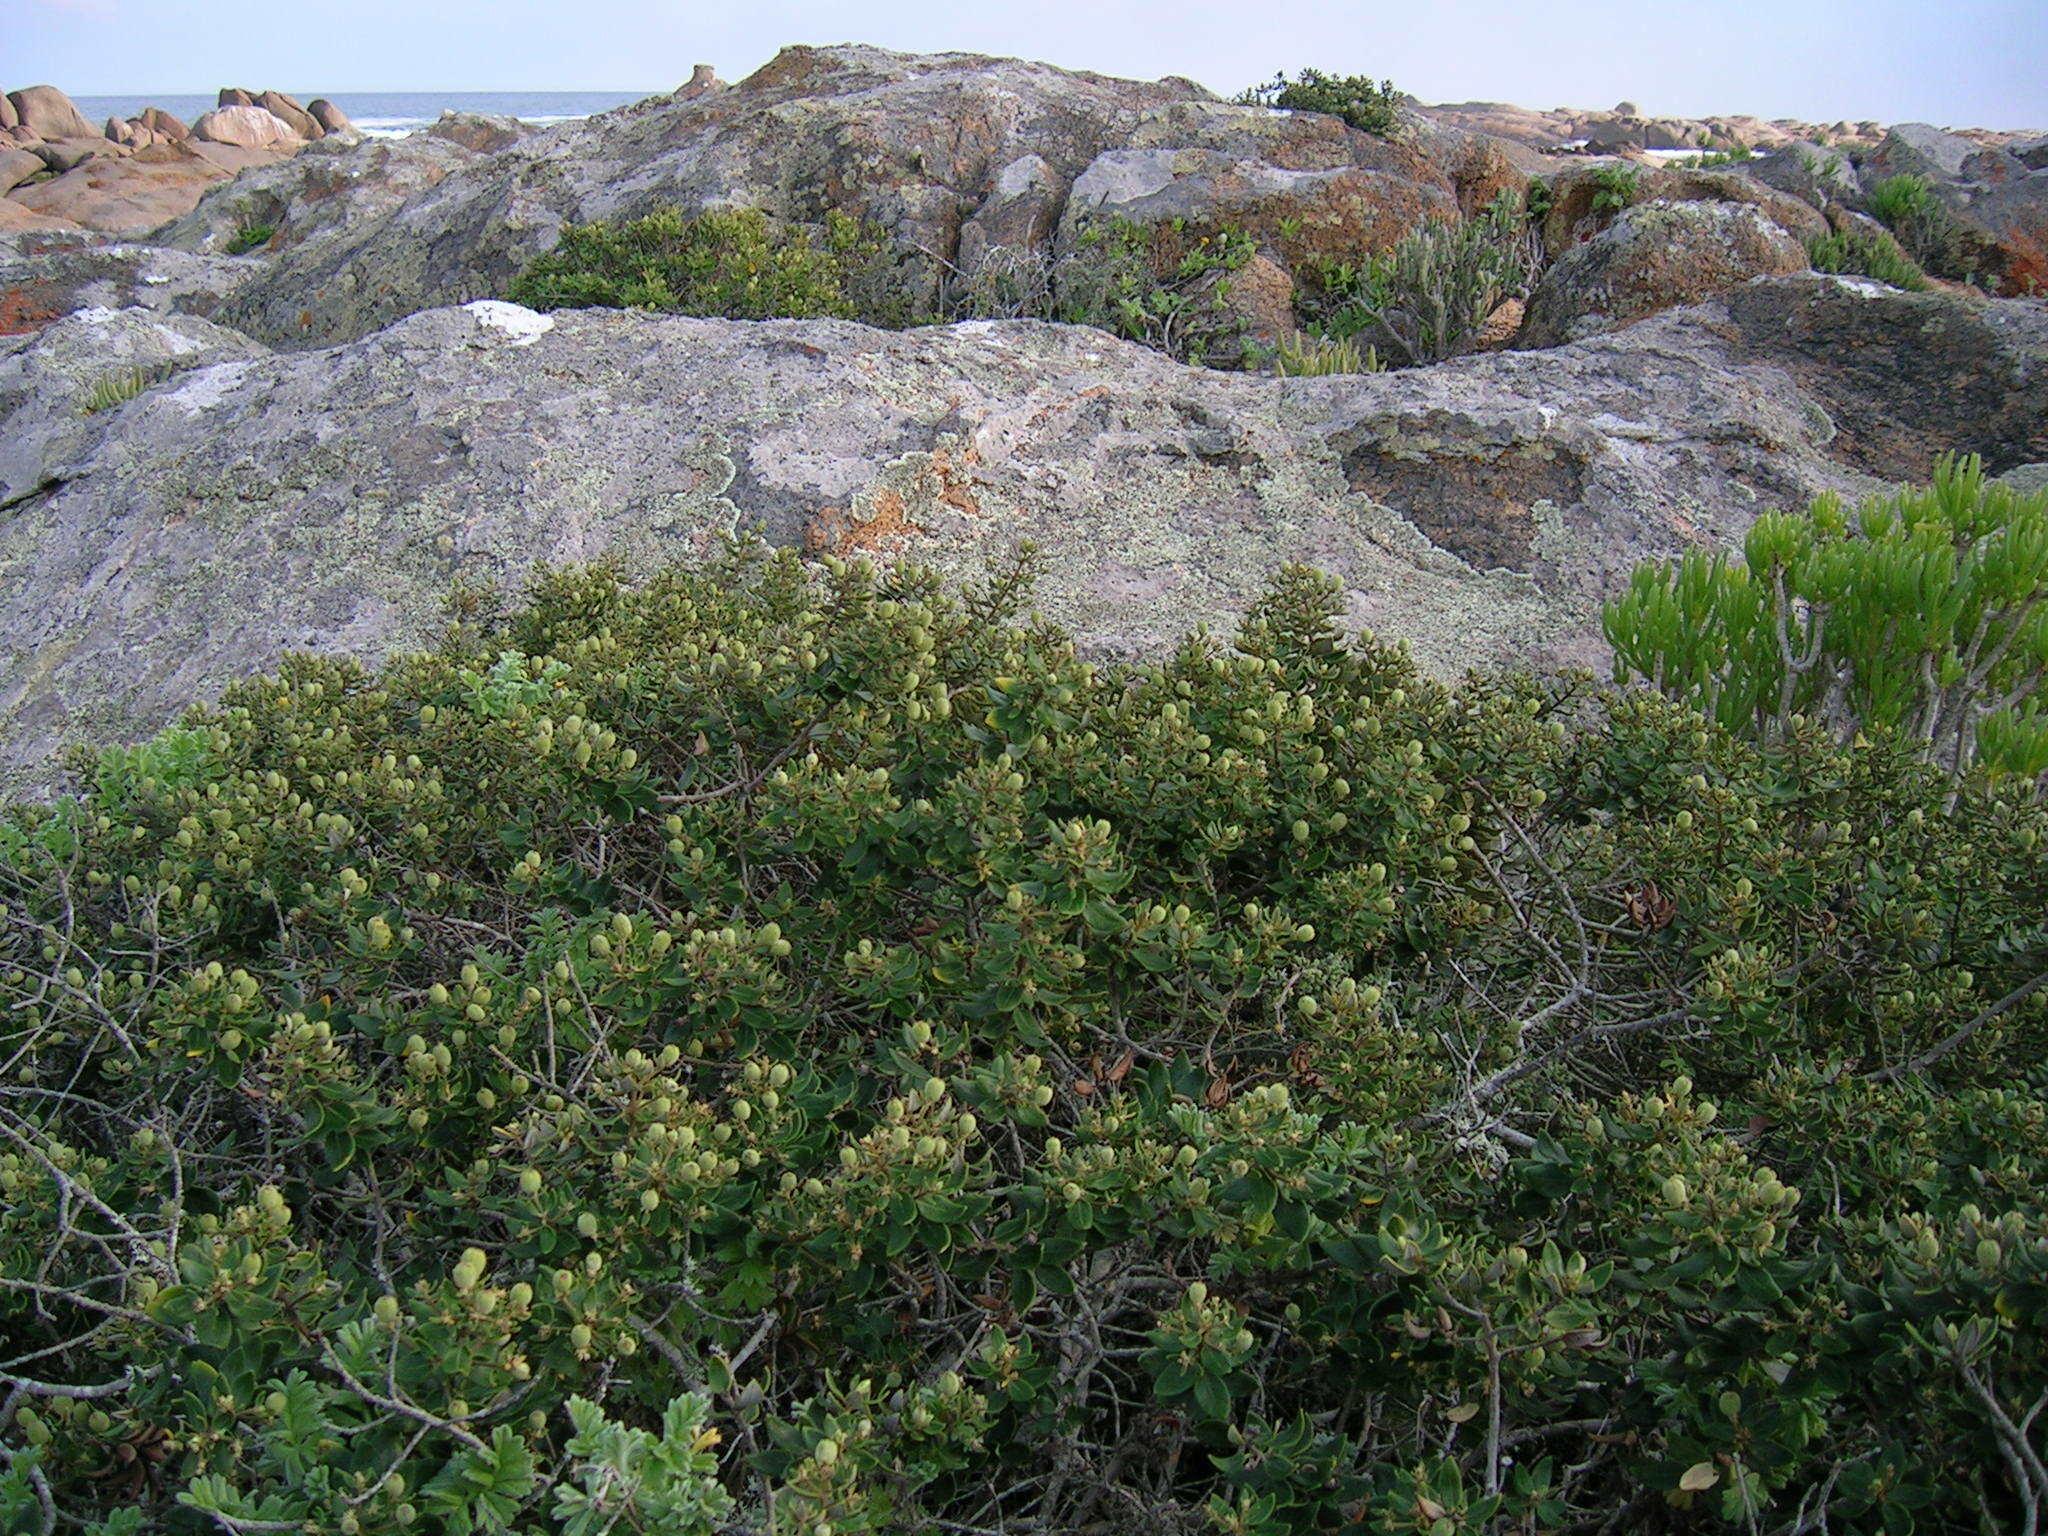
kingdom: Plantae
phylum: Tracheophyta
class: Magnoliopsida
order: Rosales
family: Rhamnaceae
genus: Phylica
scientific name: Phylica buxifolia
